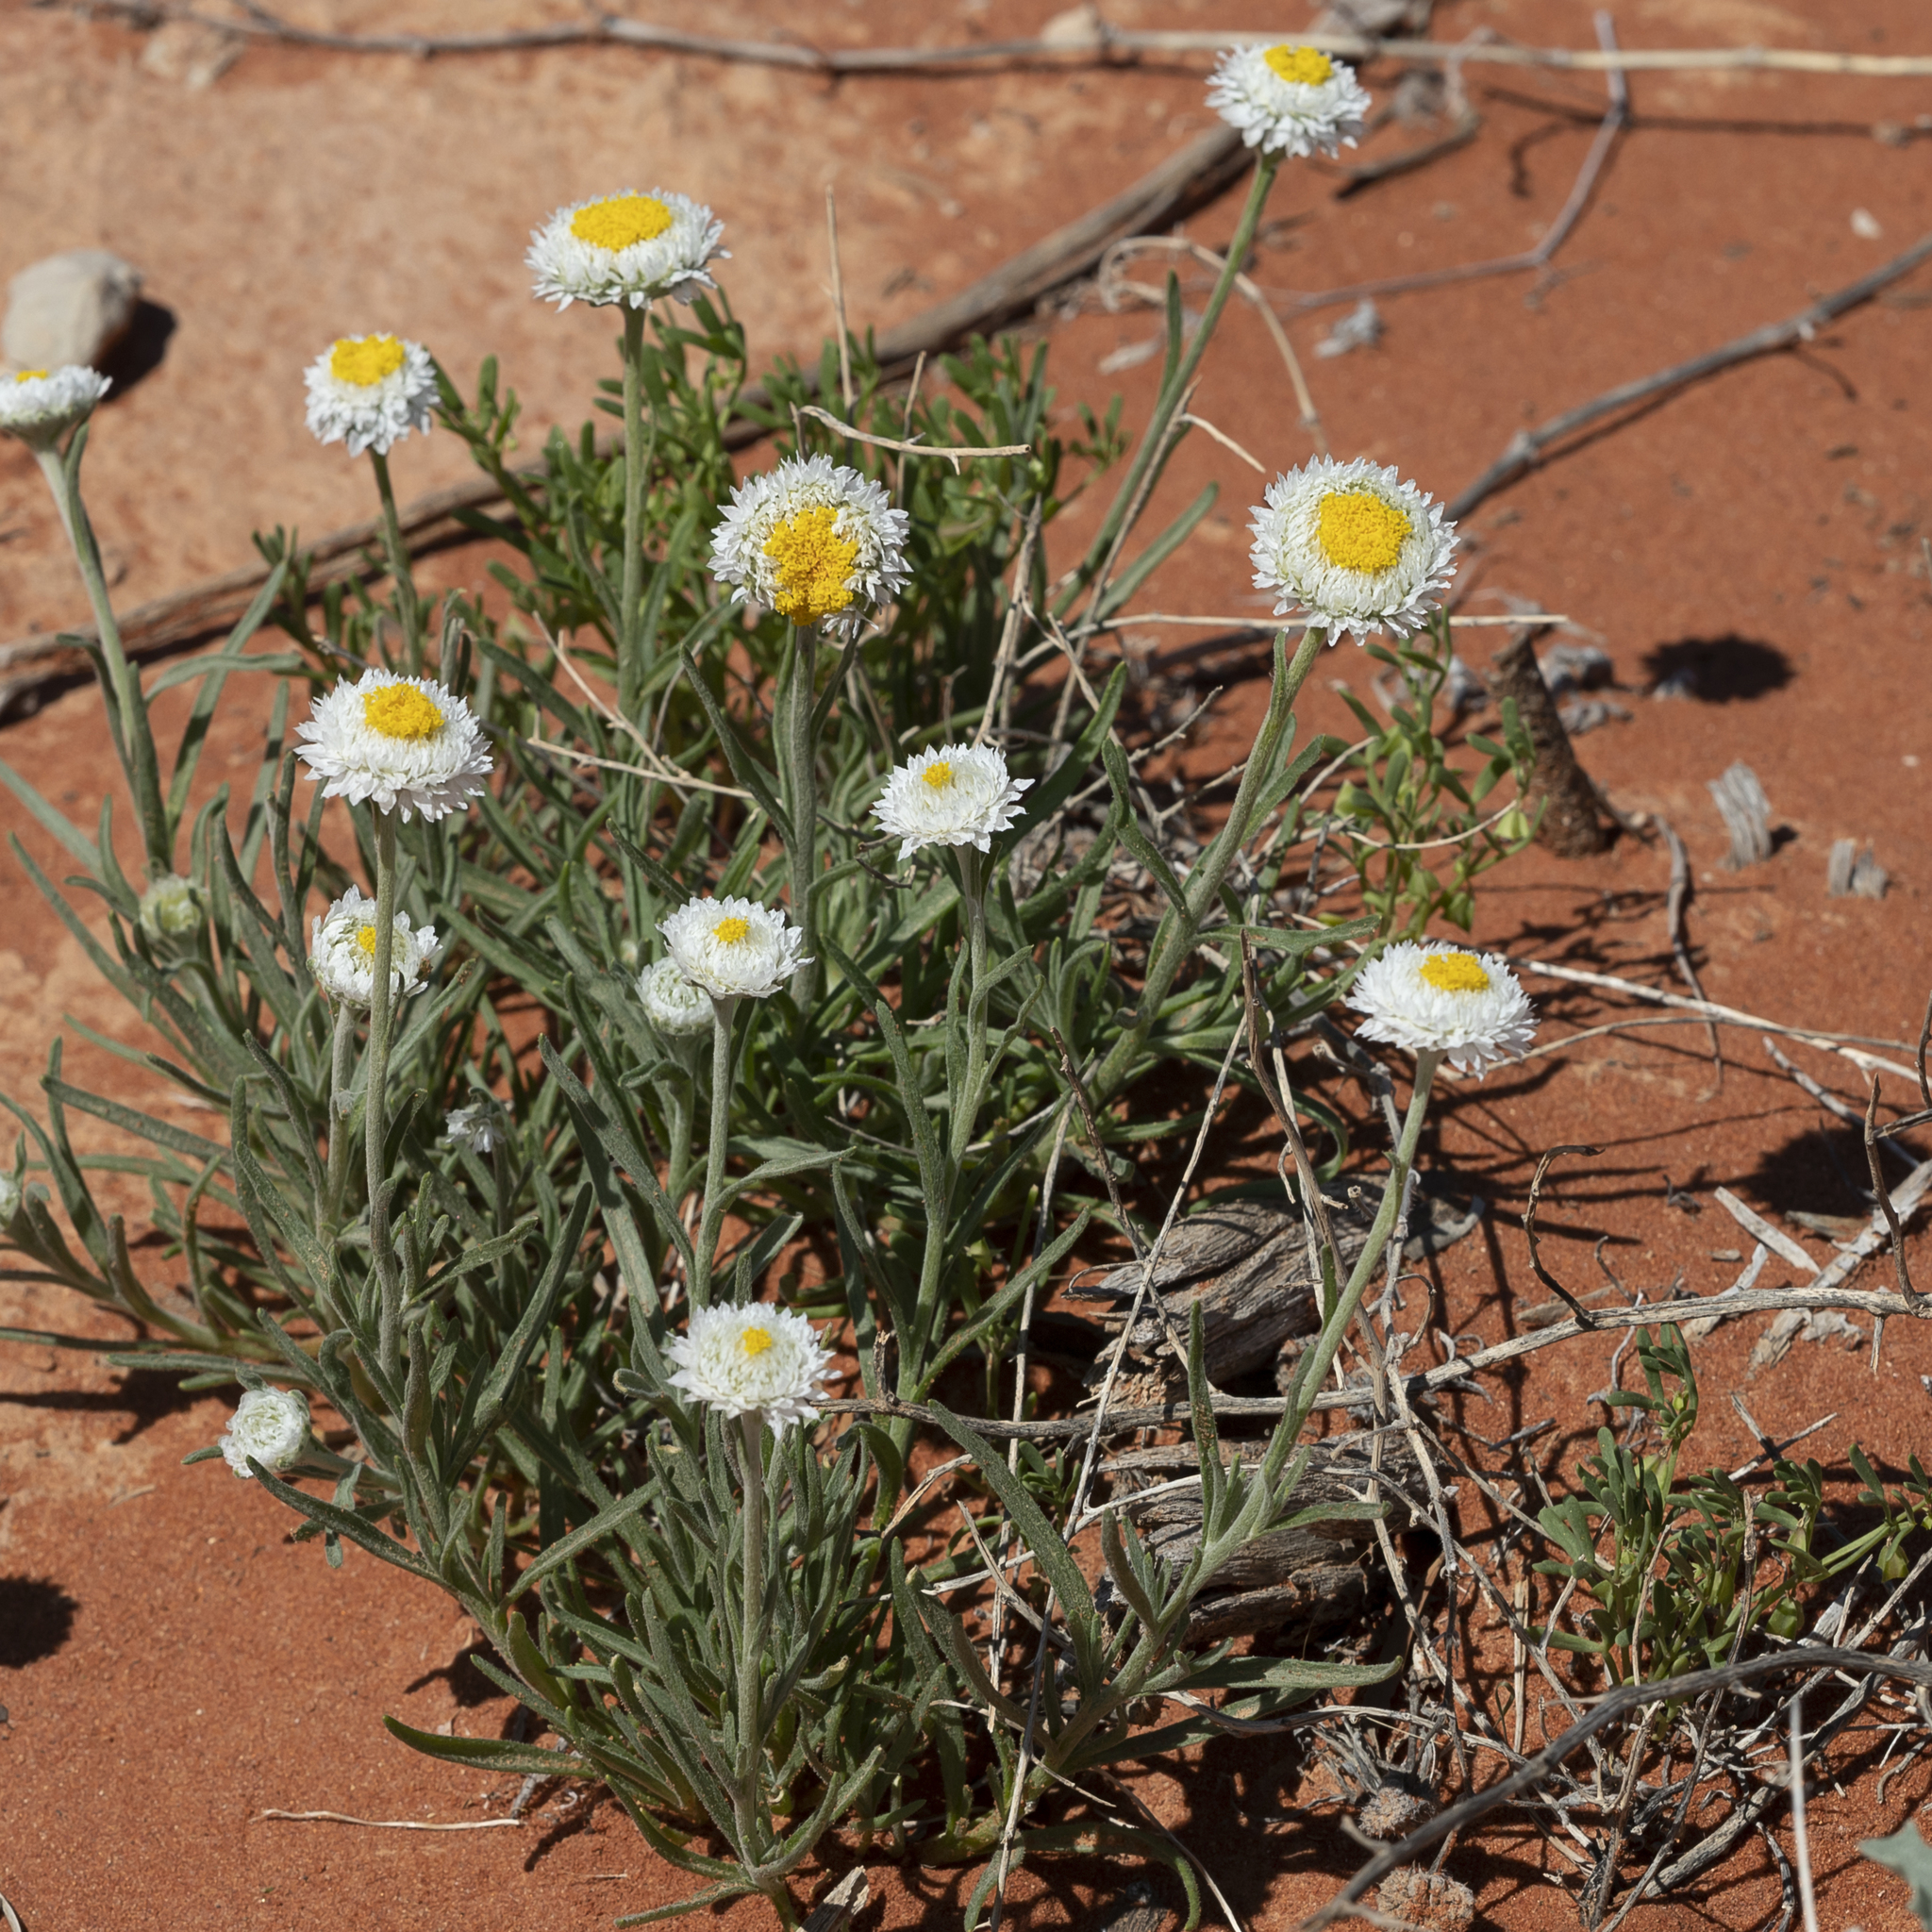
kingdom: Plantae
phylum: Tracheophyta
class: Magnoliopsida
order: Asterales
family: Asteraceae
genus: Polycalymma
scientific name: Polycalymma stuartii
